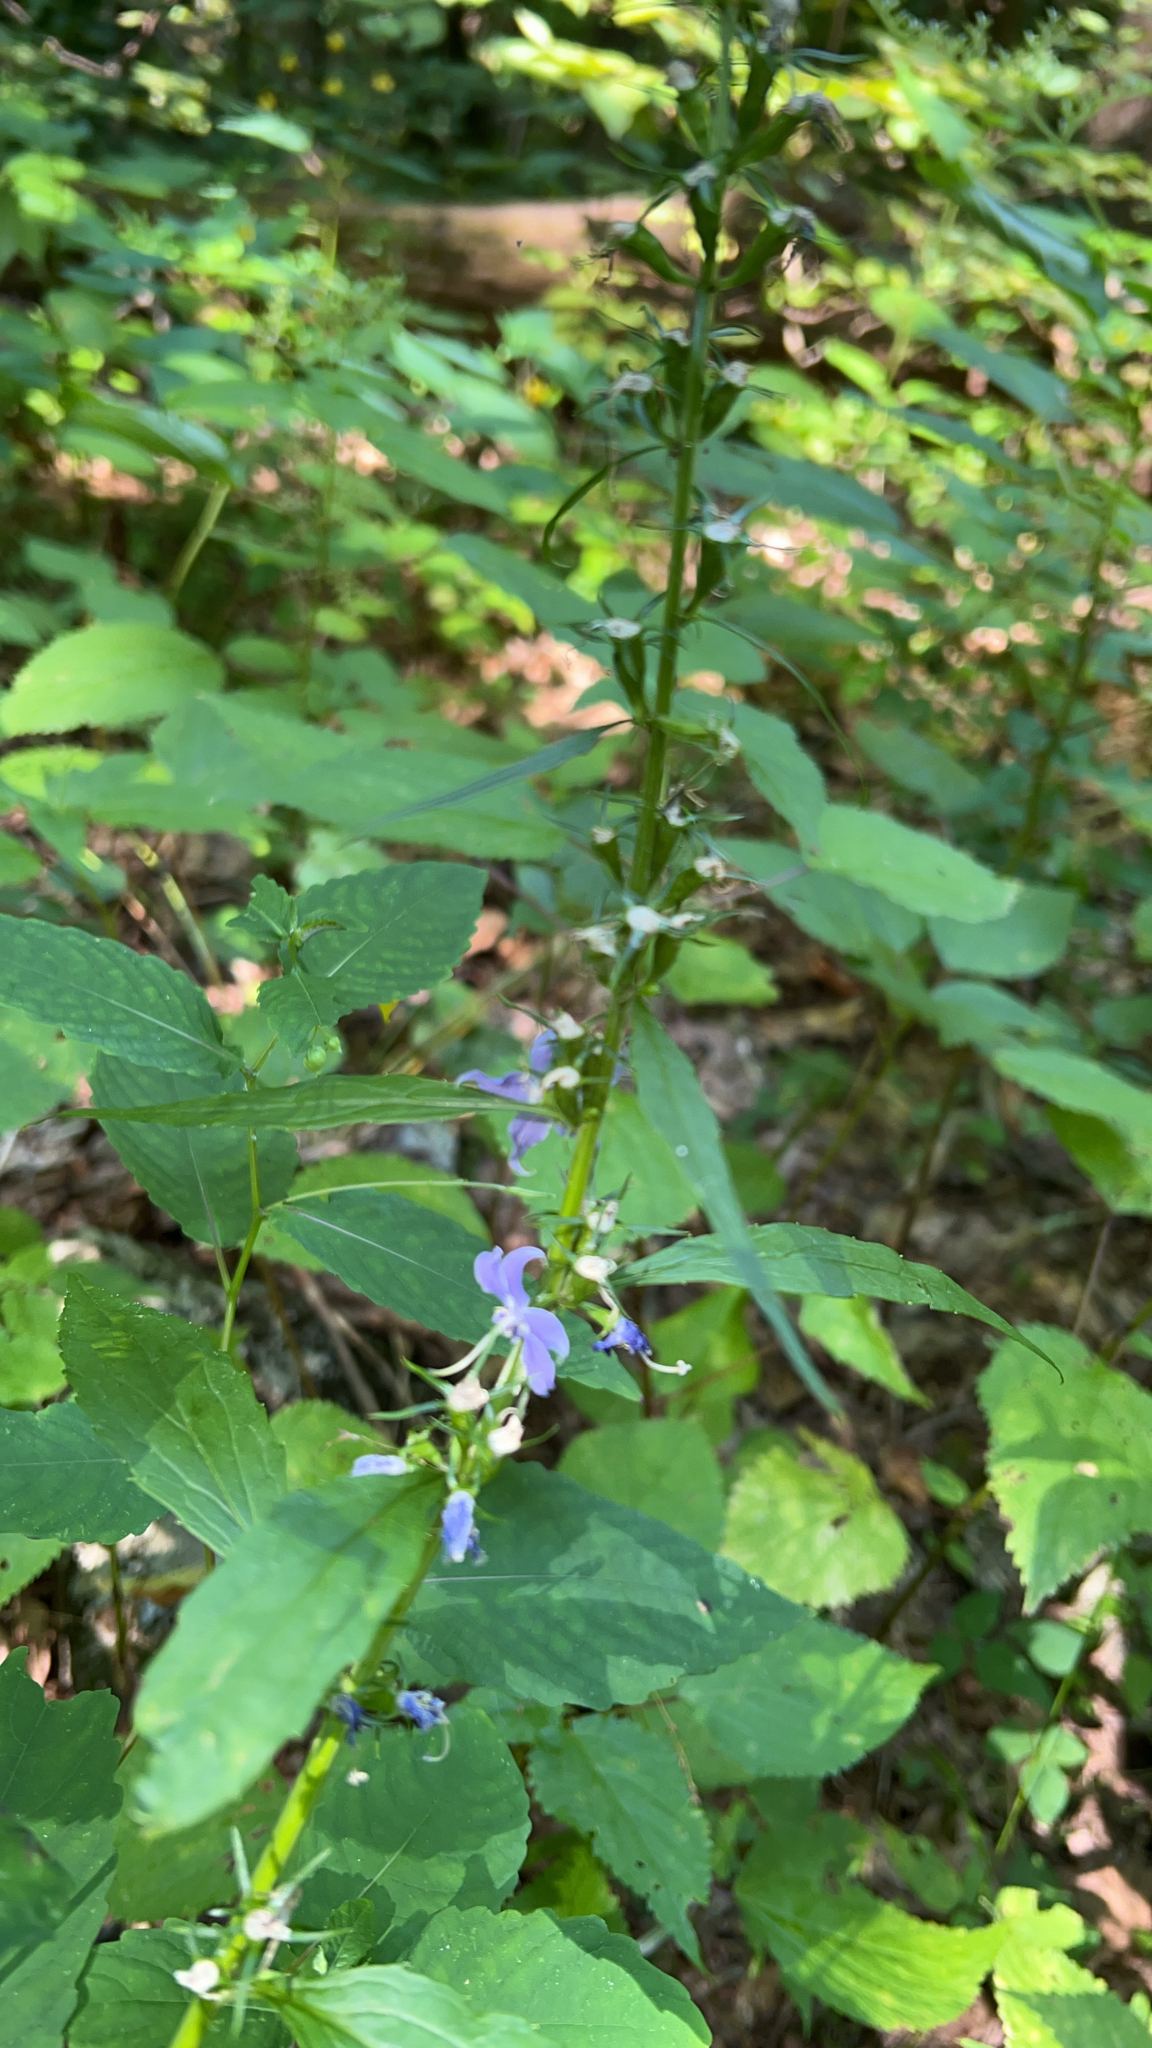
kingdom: Plantae
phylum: Tracheophyta
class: Magnoliopsida
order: Asterales
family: Campanulaceae
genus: Campanulastrum
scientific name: Campanulastrum americanum
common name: American bellflower
